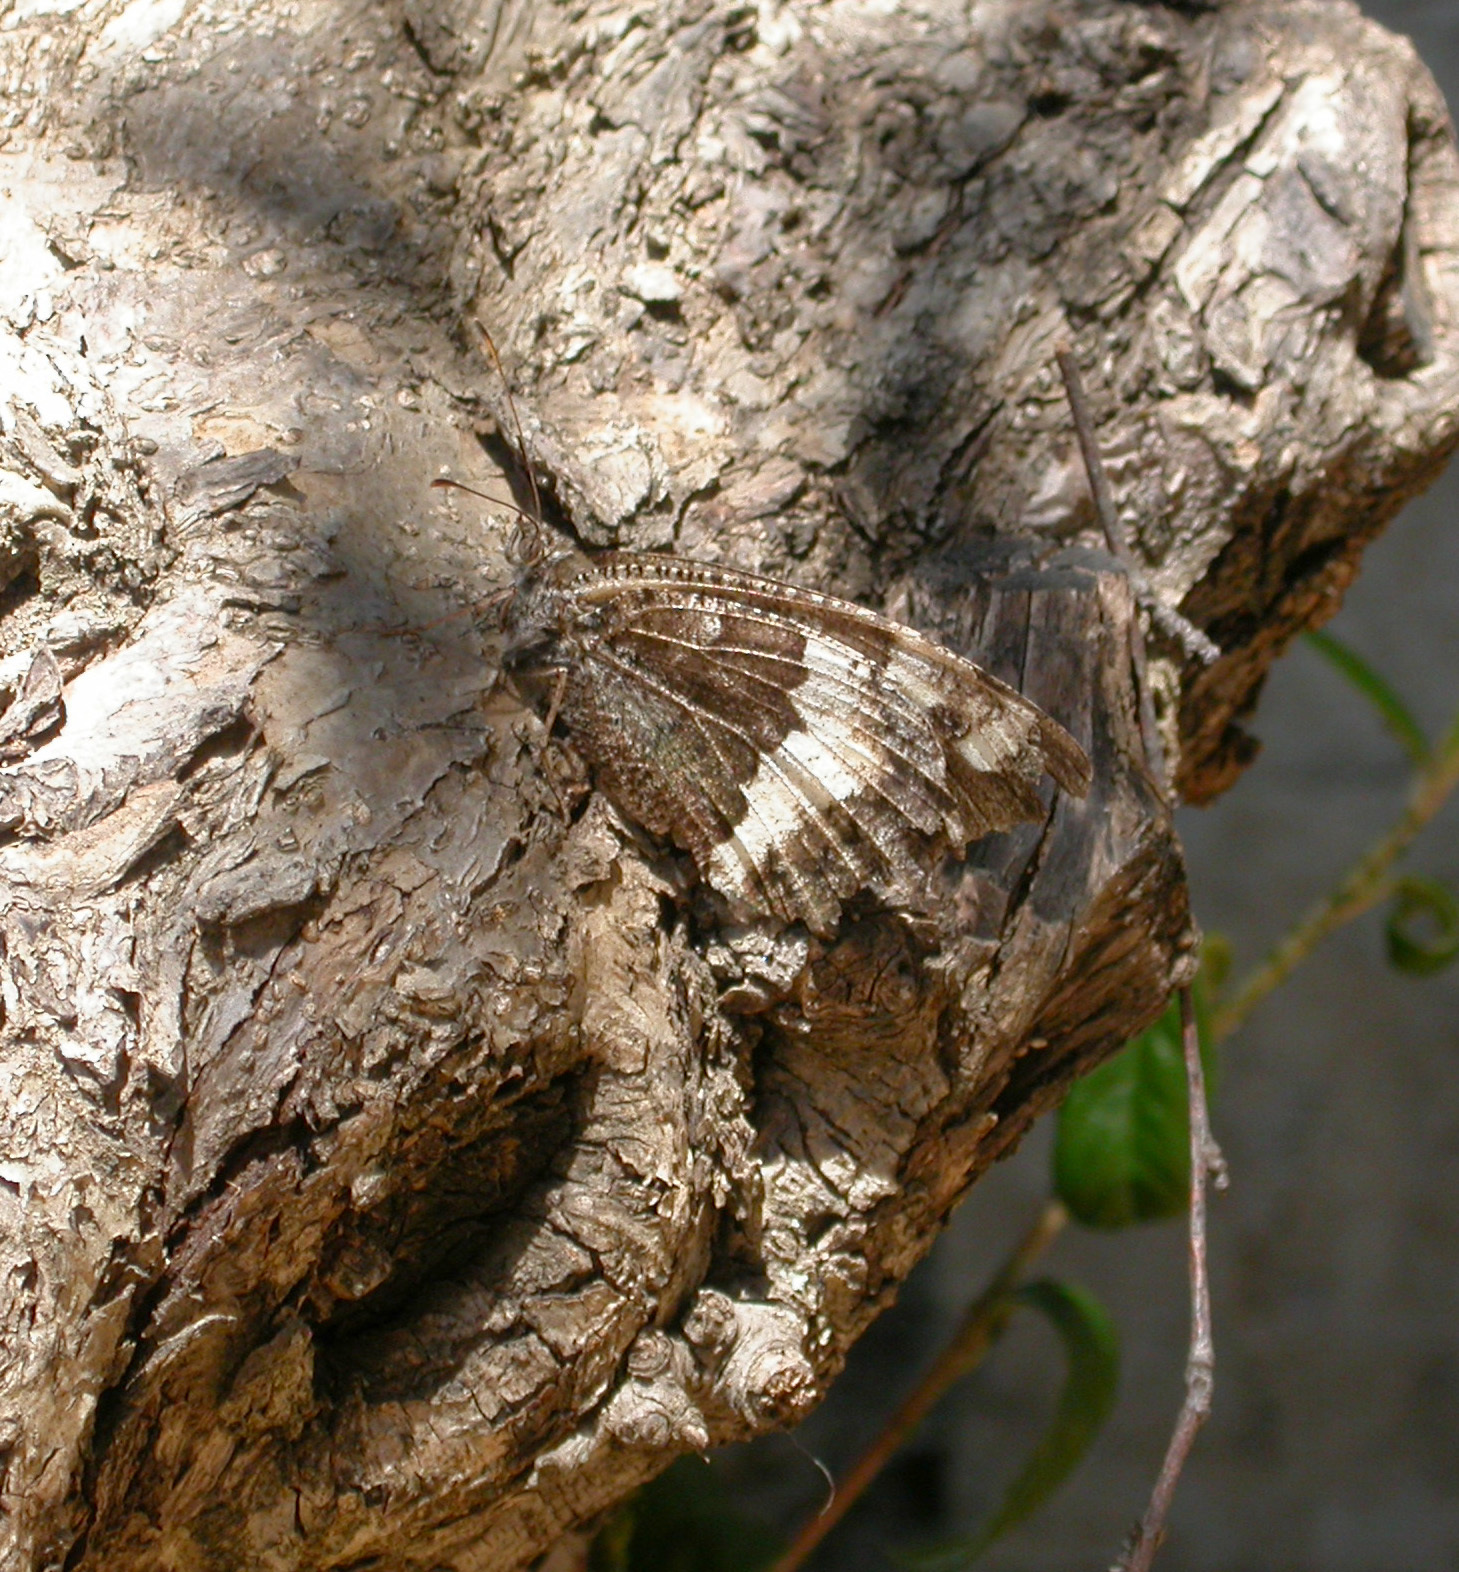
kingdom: Animalia
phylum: Arthropoda
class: Insecta
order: Lepidoptera
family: Lycaenidae
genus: Loweia
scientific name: Loweia tityrus
